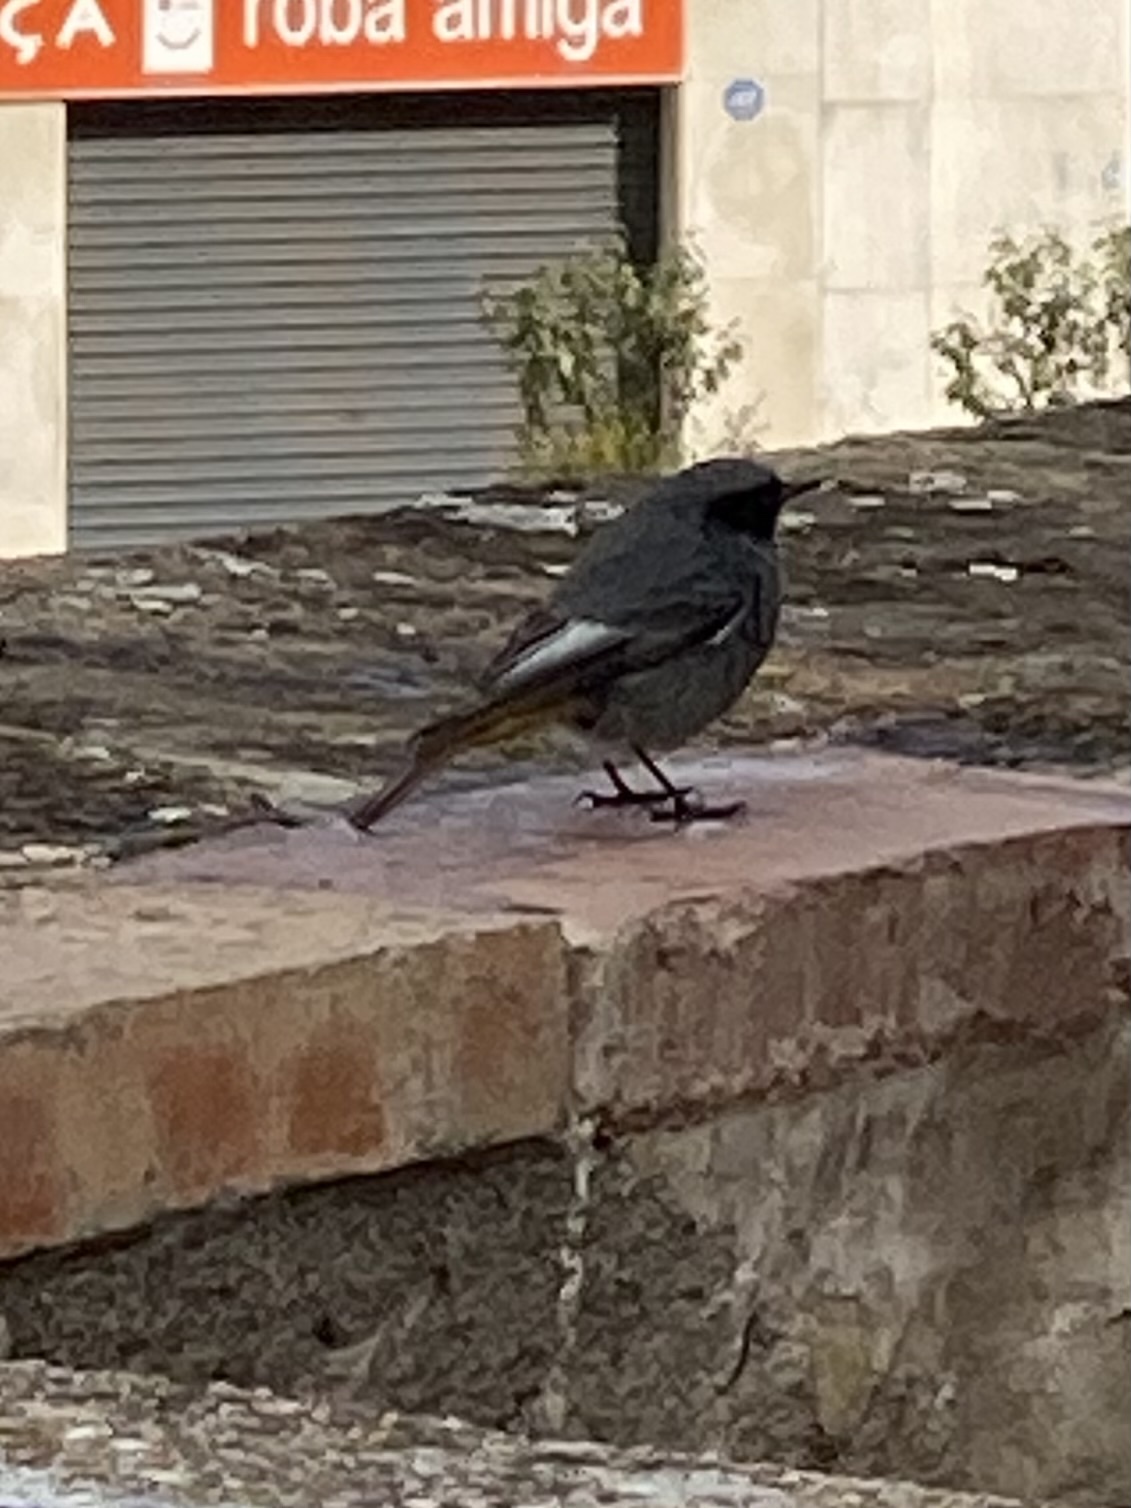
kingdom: Animalia
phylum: Chordata
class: Aves
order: Passeriformes
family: Muscicapidae
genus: Phoenicurus
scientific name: Phoenicurus ochruros
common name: Black redstart
